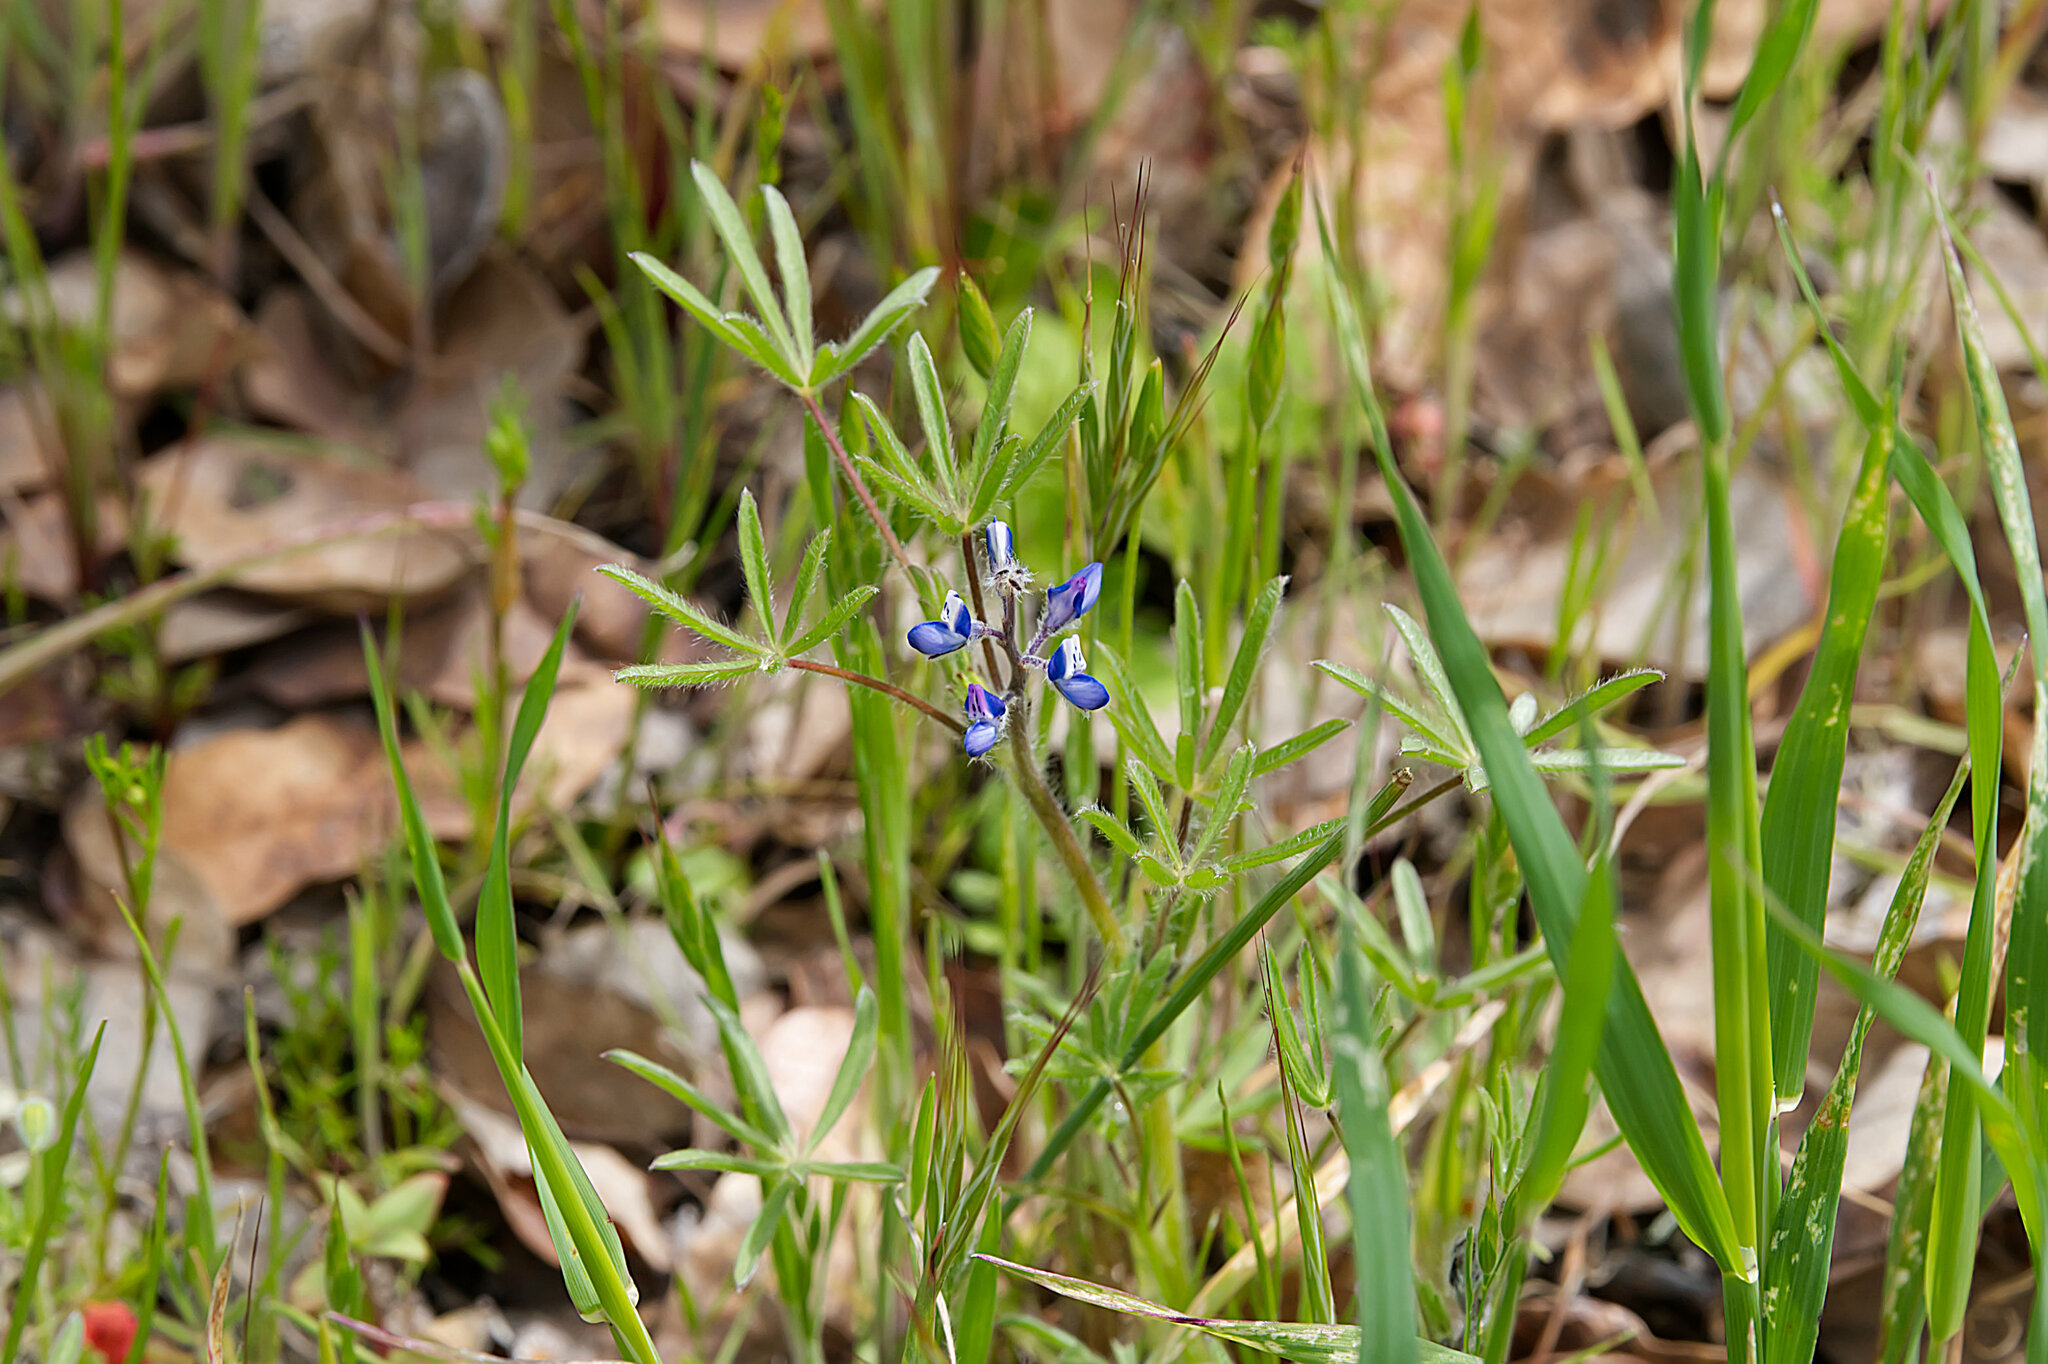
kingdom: Plantae
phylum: Tracheophyta
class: Magnoliopsida
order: Fabales
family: Fabaceae
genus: Lupinus
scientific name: Lupinus bicolor
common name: Miniature lupine
